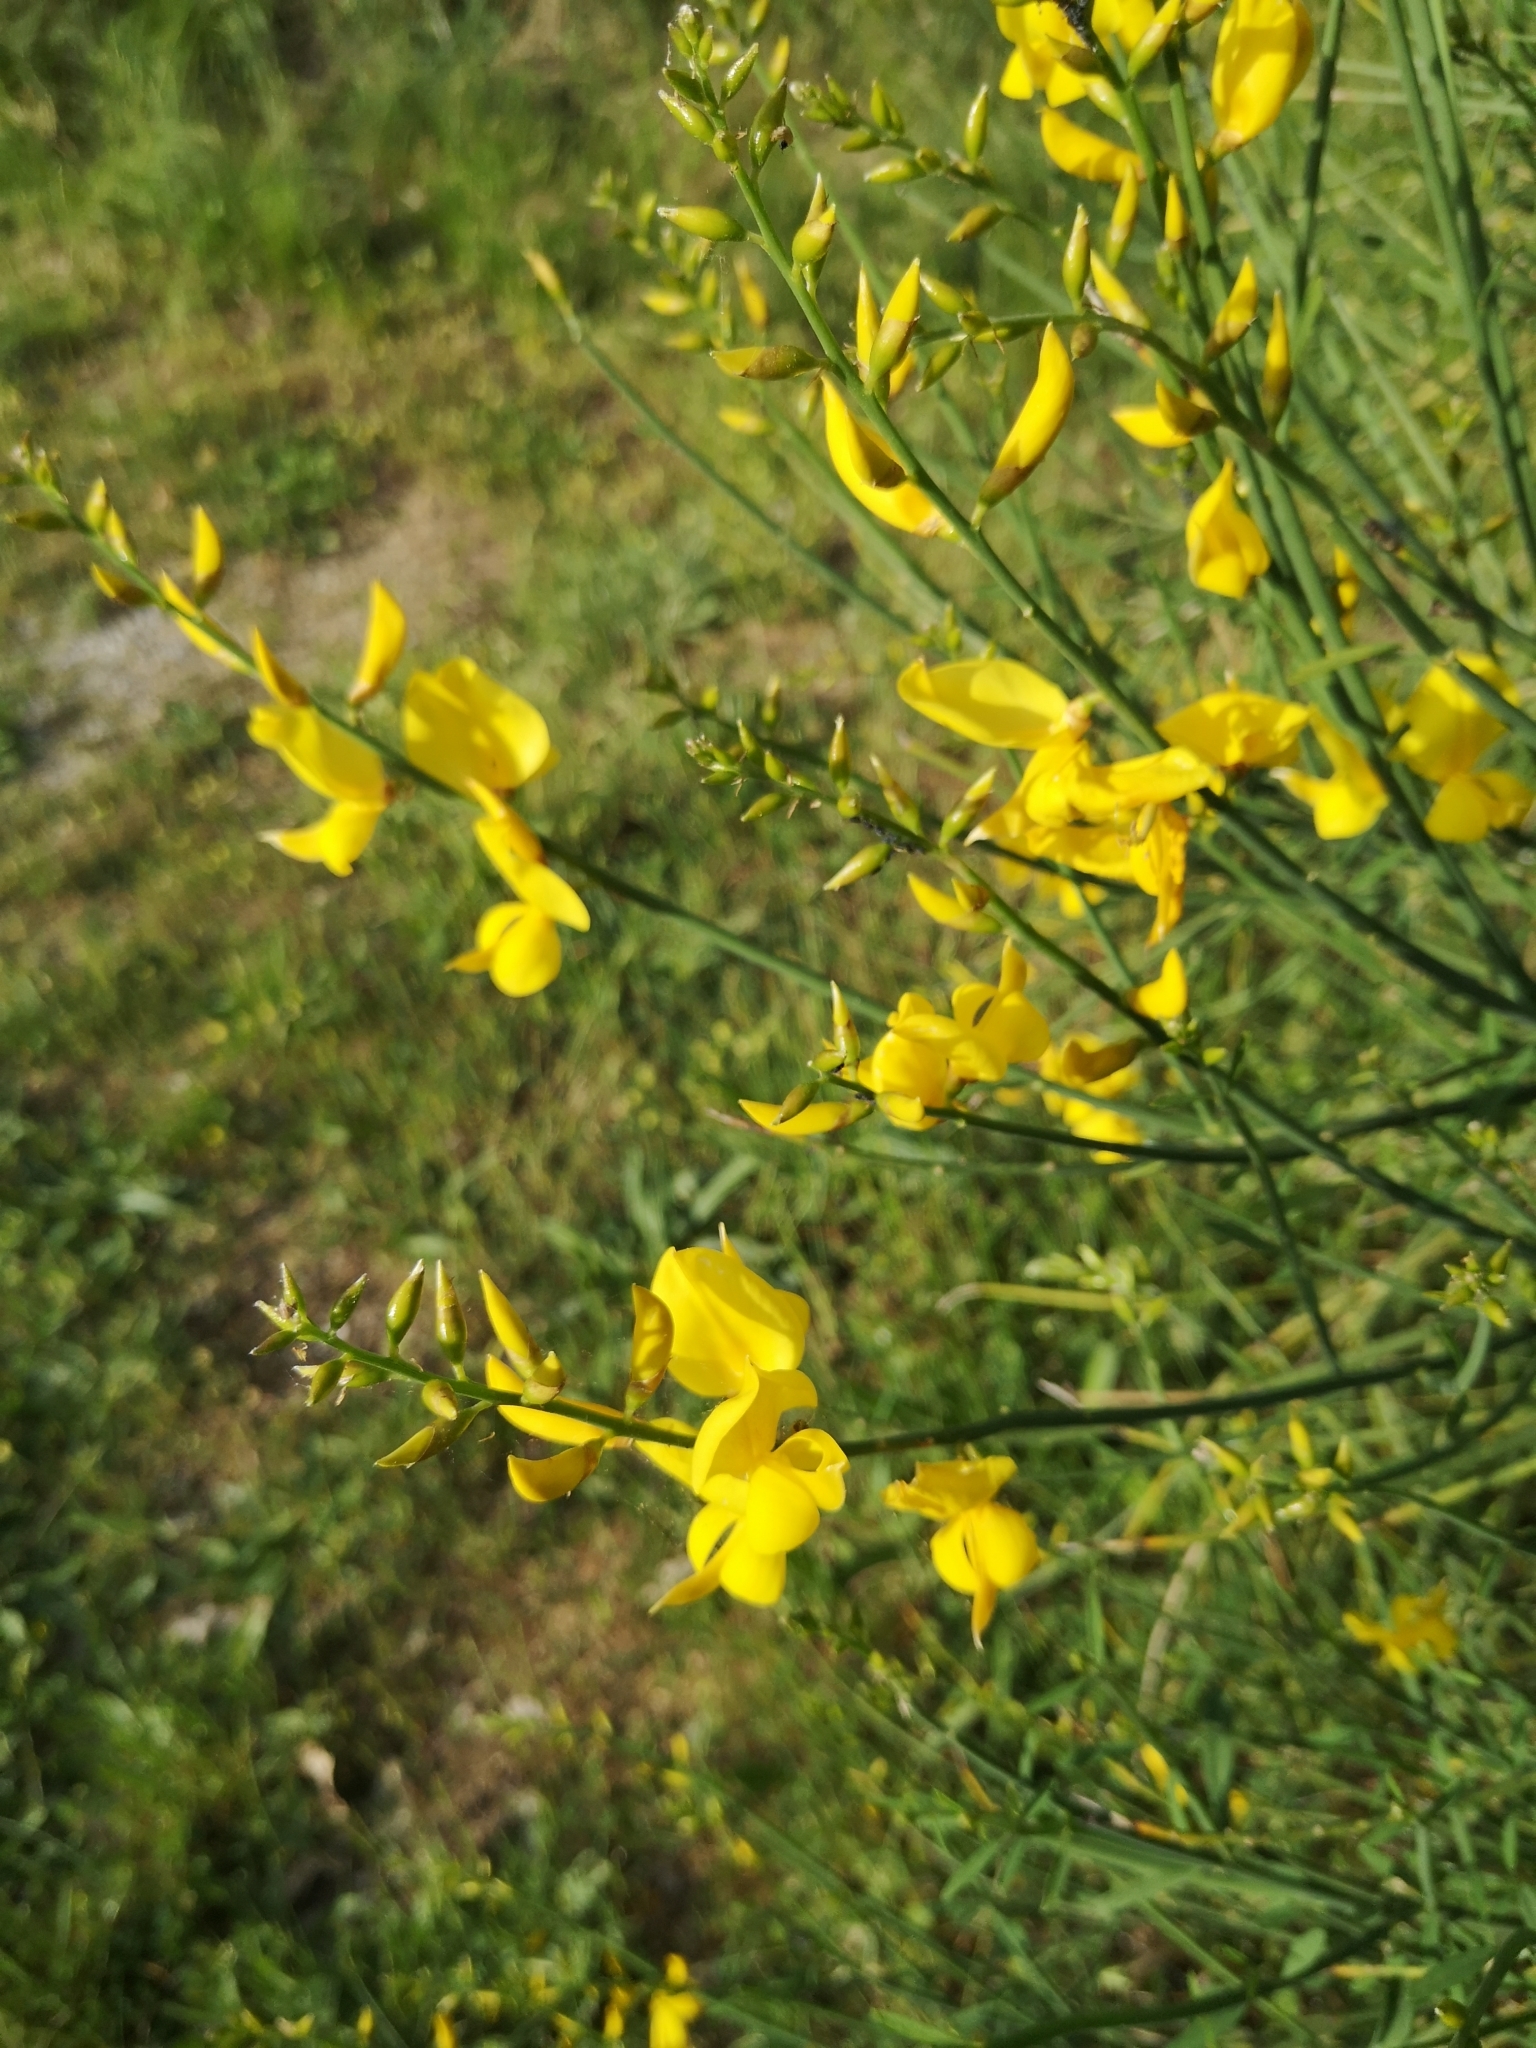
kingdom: Plantae
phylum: Tracheophyta
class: Magnoliopsida
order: Fabales
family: Fabaceae
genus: Spartium
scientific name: Spartium junceum
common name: Spanish broom
